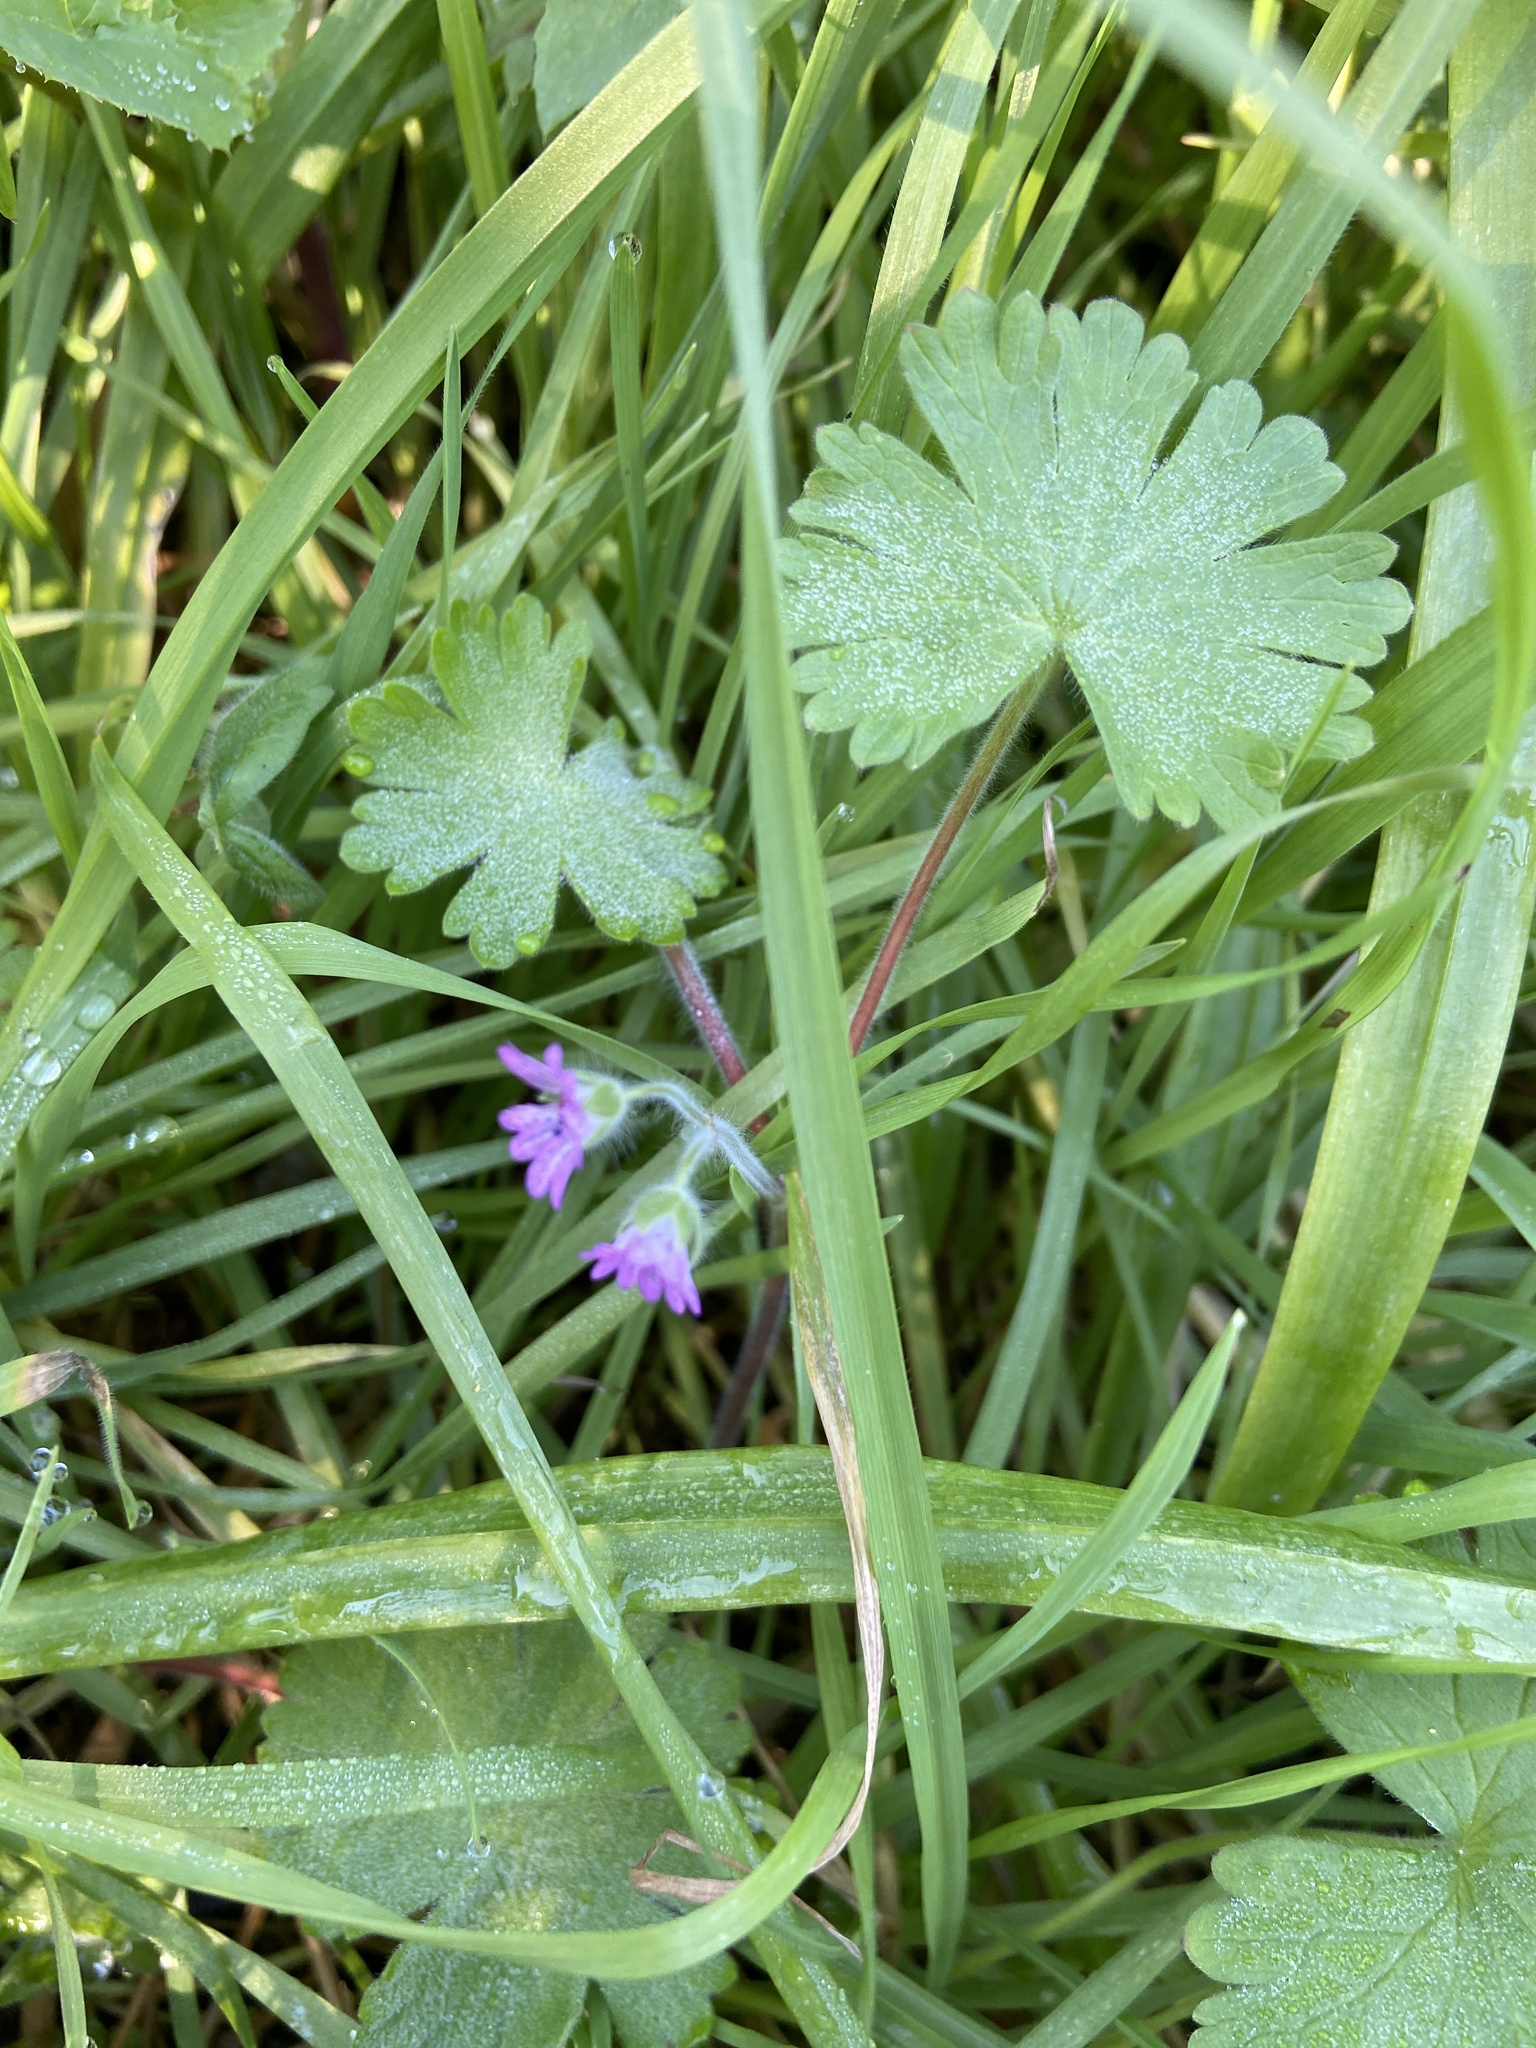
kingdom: Plantae
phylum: Tracheophyta
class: Magnoliopsida
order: Geraniales
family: Geraniaceae
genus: Geranium
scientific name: Geranium molle
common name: Dove's-foot crane's-bill
